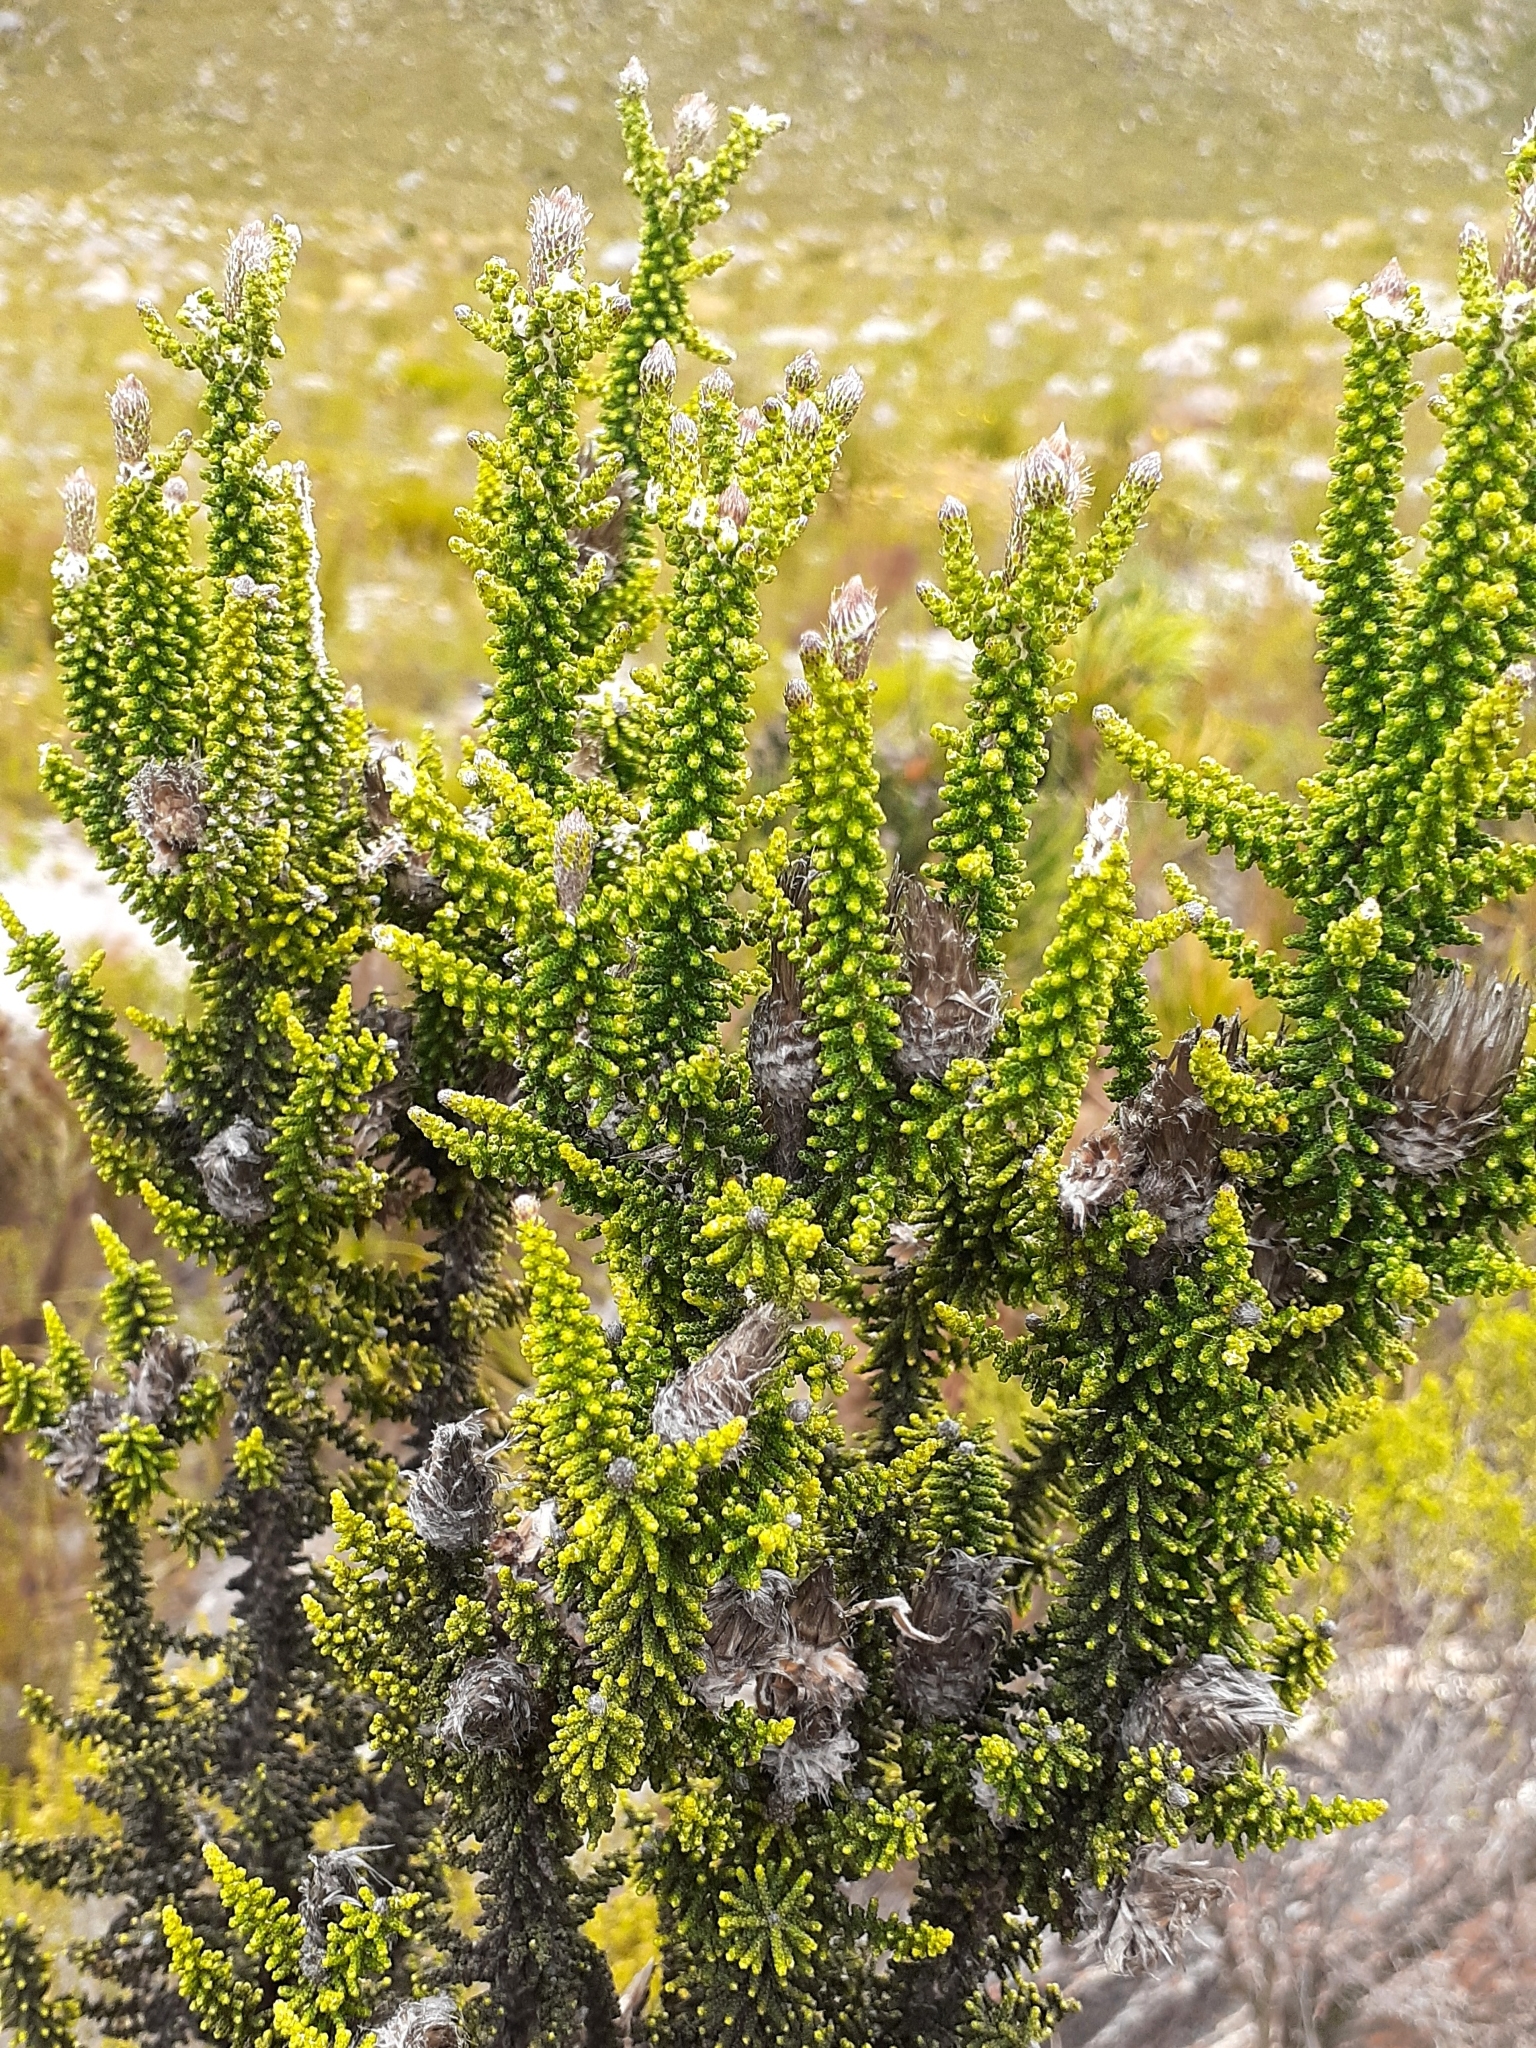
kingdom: Plantae
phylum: Tracheophyta
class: Magnoliopsida
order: Asterales
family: Asteraceae
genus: Phaenocoma
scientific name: Phaenocoma prolifera
